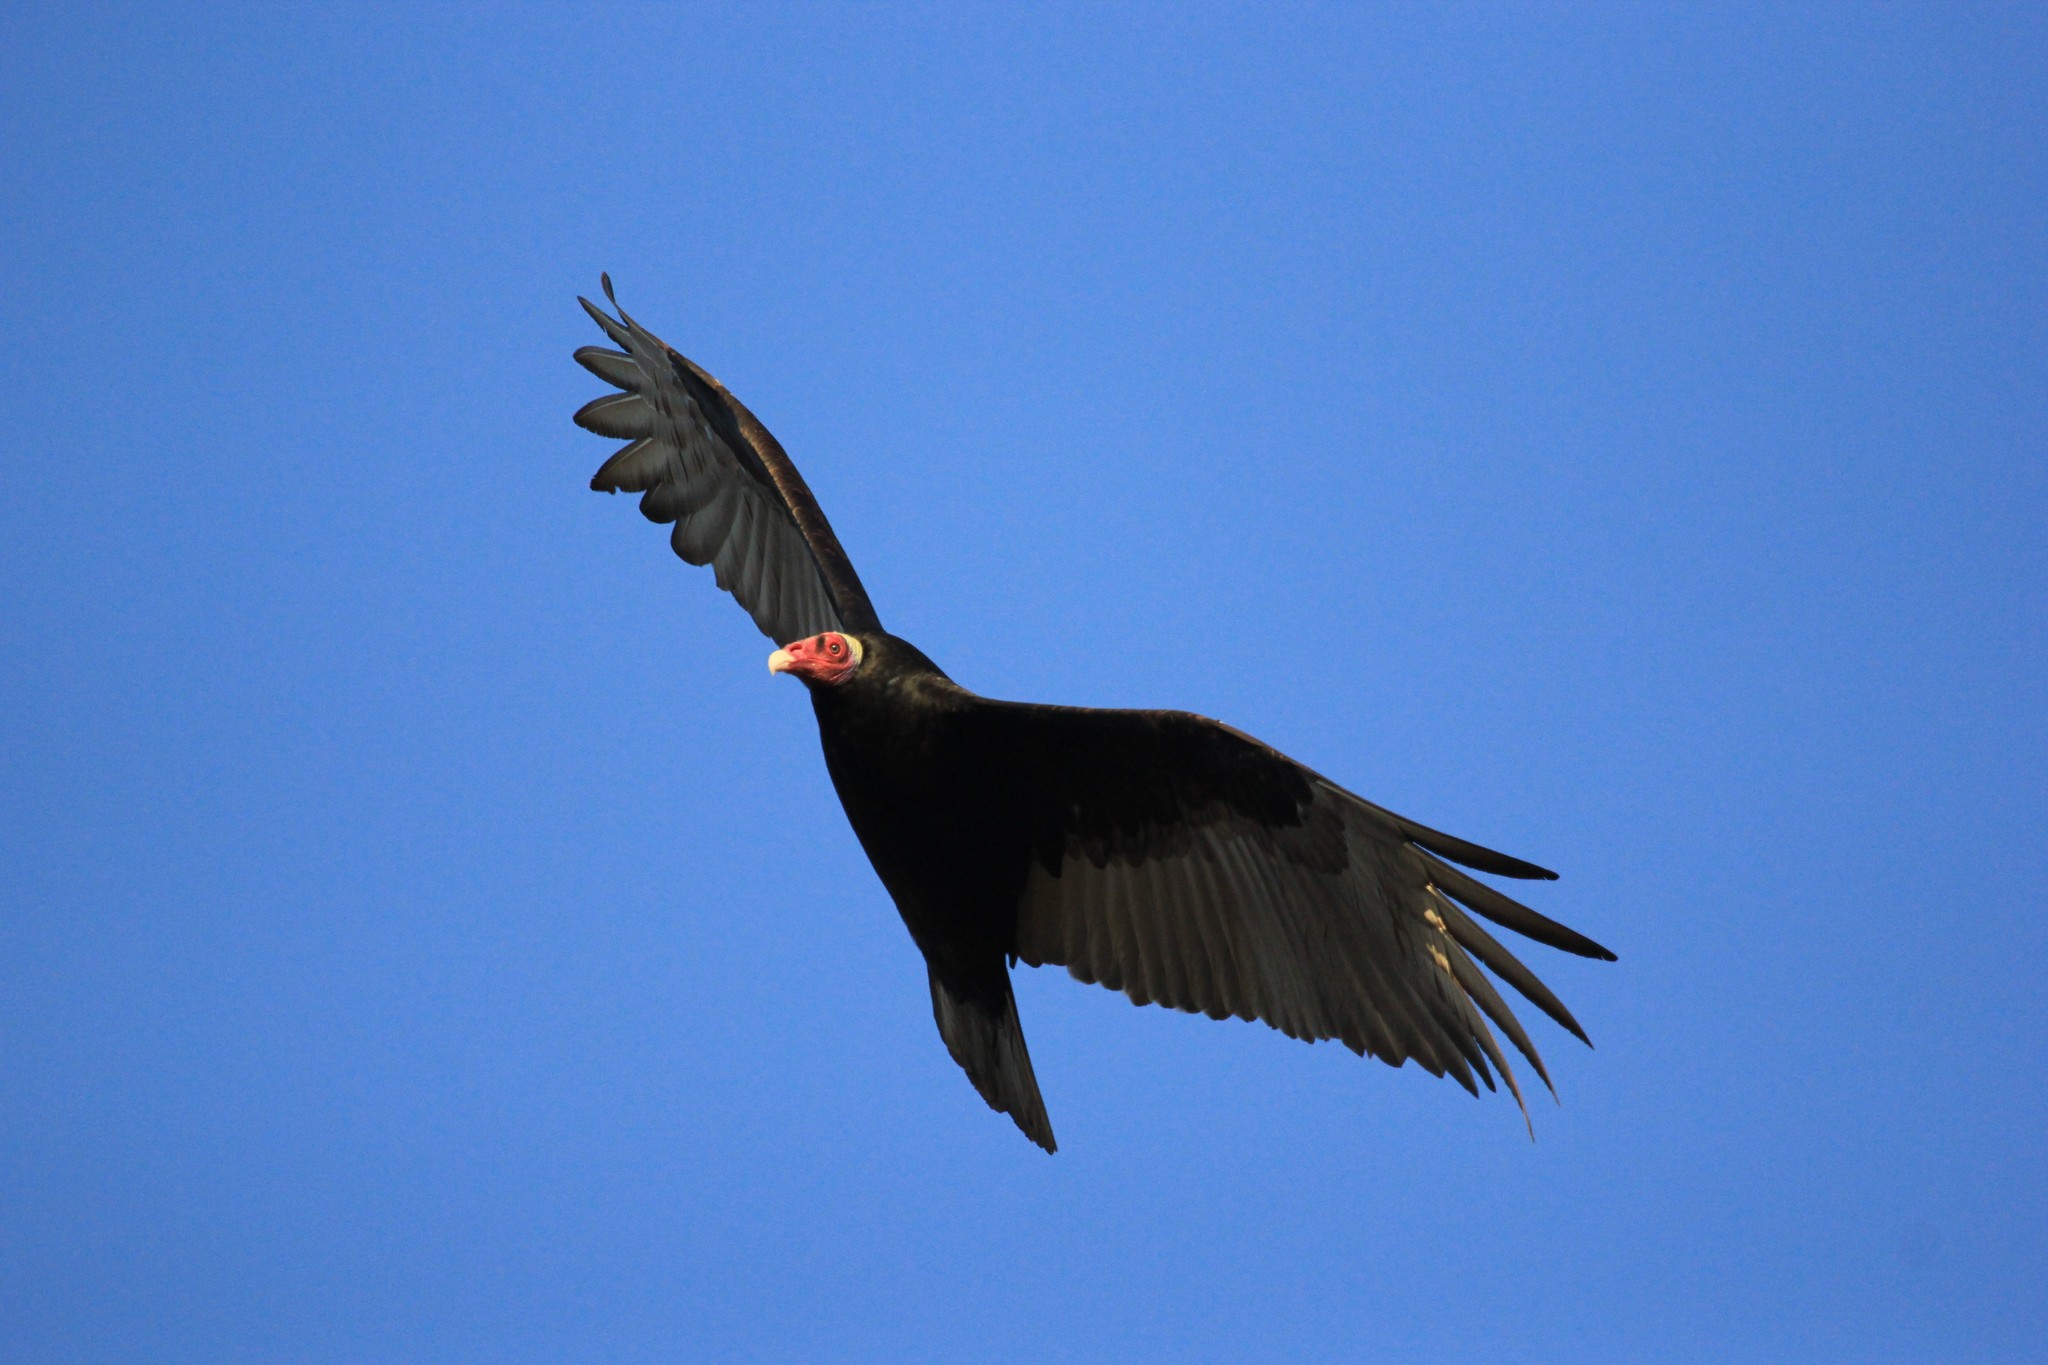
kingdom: Animalia
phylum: Chordata
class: Aves
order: Accipitriformes
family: Cathartidae
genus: Cathartes
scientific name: Cathartes aura
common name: Turkey vulture
